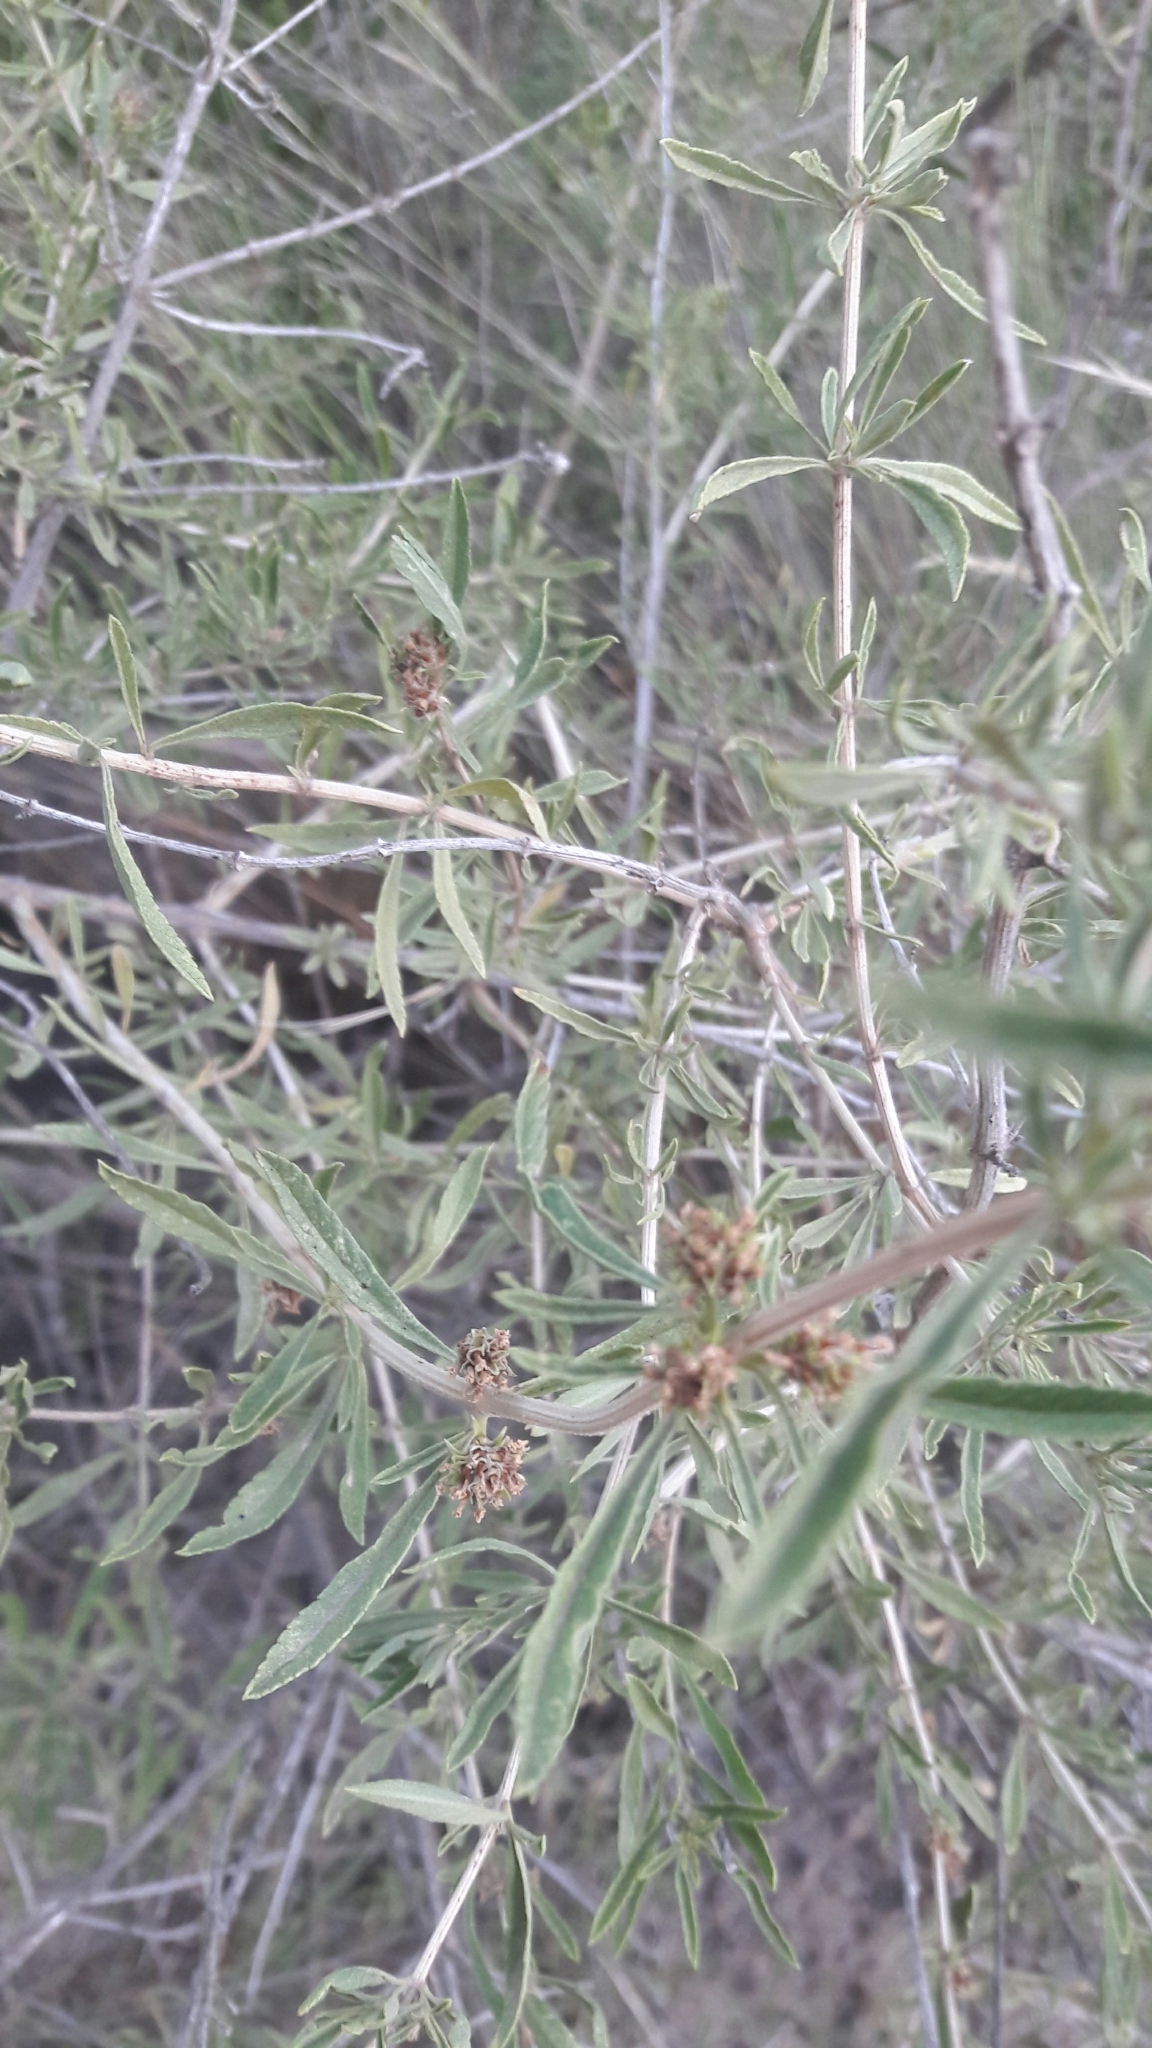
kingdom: Plantae
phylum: Tracheophyta
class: Magnoliopsida
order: Lamiales
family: Verbenaceae
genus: Lippia
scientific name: Lippia turbinata
